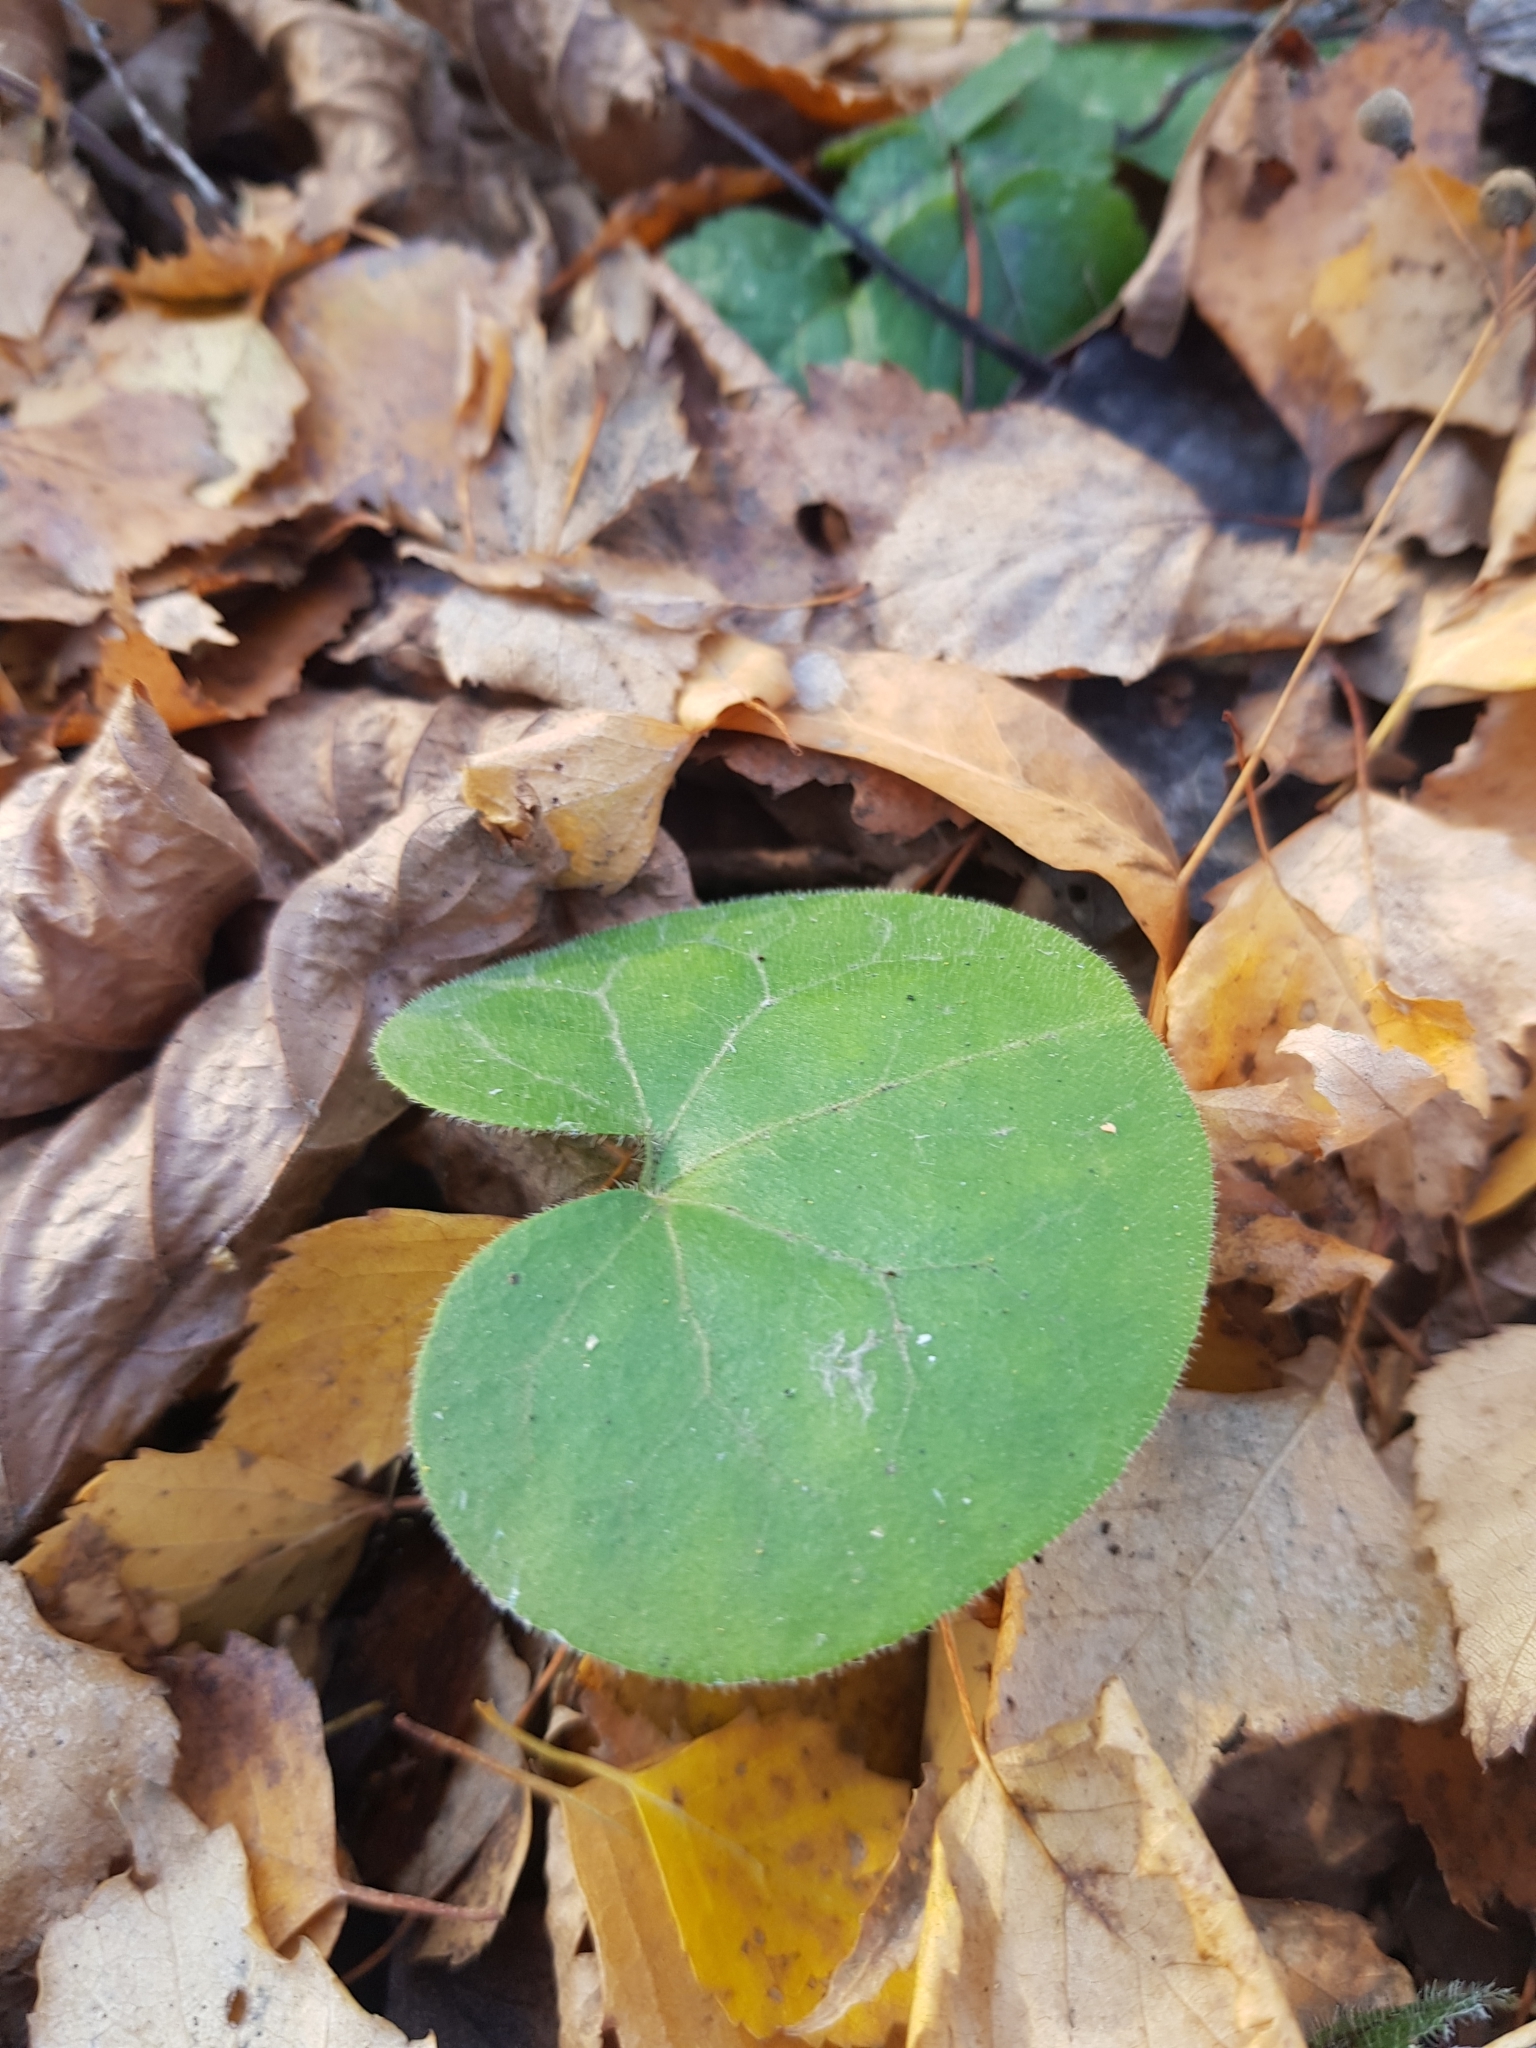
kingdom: Plantae
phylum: Tracheophyta
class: Magnoliopsida
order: Piperales
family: Aristolochiaceae
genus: Asarum
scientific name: Asarum europaeum
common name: Asarabacca
